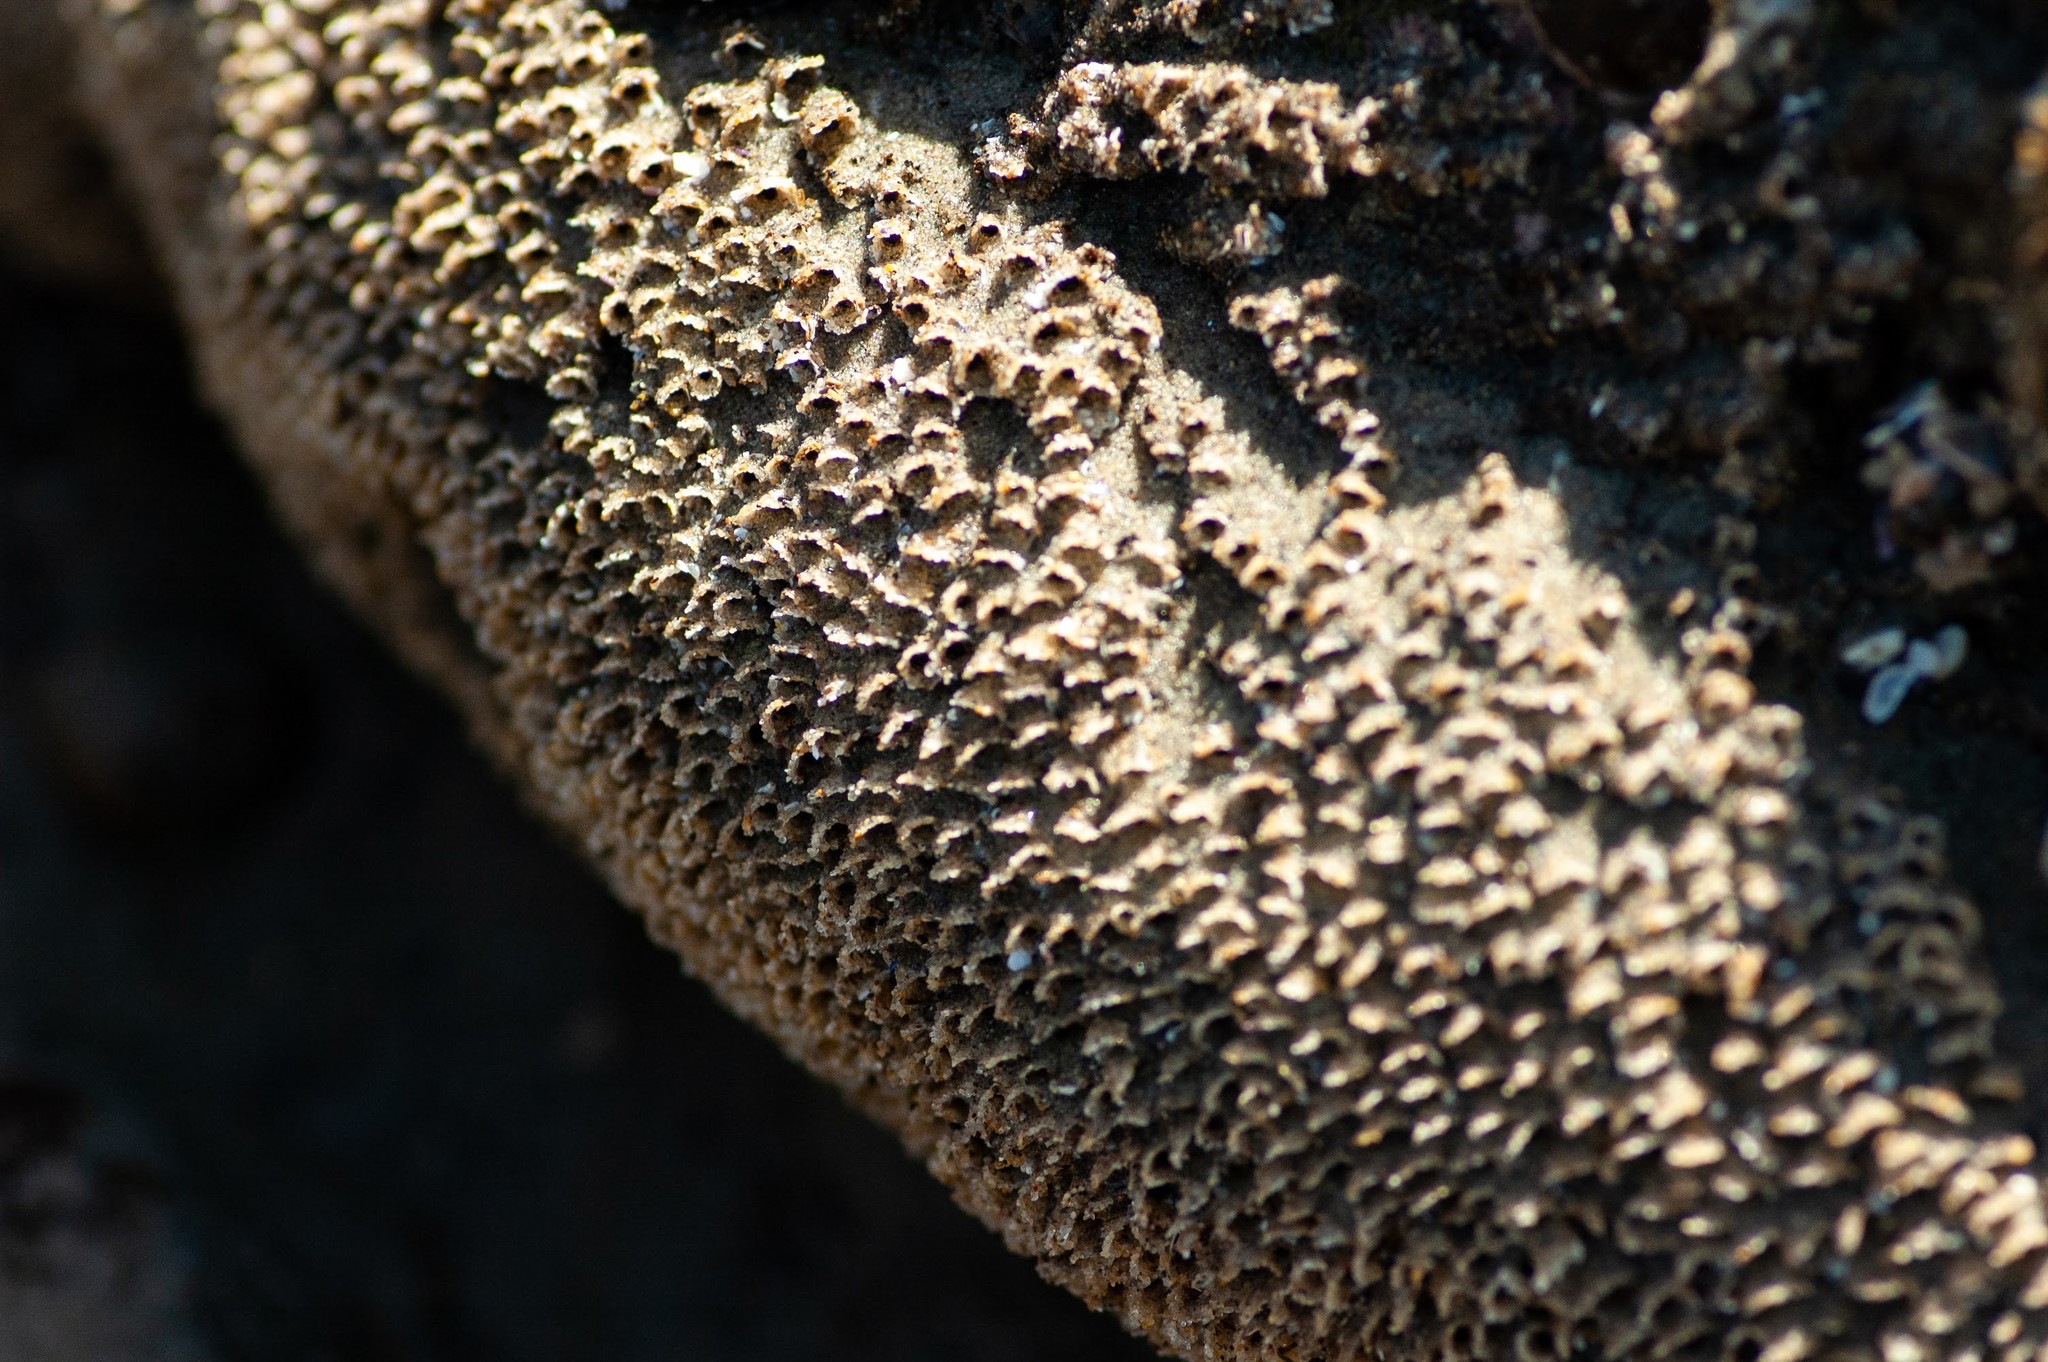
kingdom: Animalia
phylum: Annelida
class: Polychaeta
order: Sabellida
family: Sabellariidae
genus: Phragmatopoma
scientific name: Phragmatopoma californica
